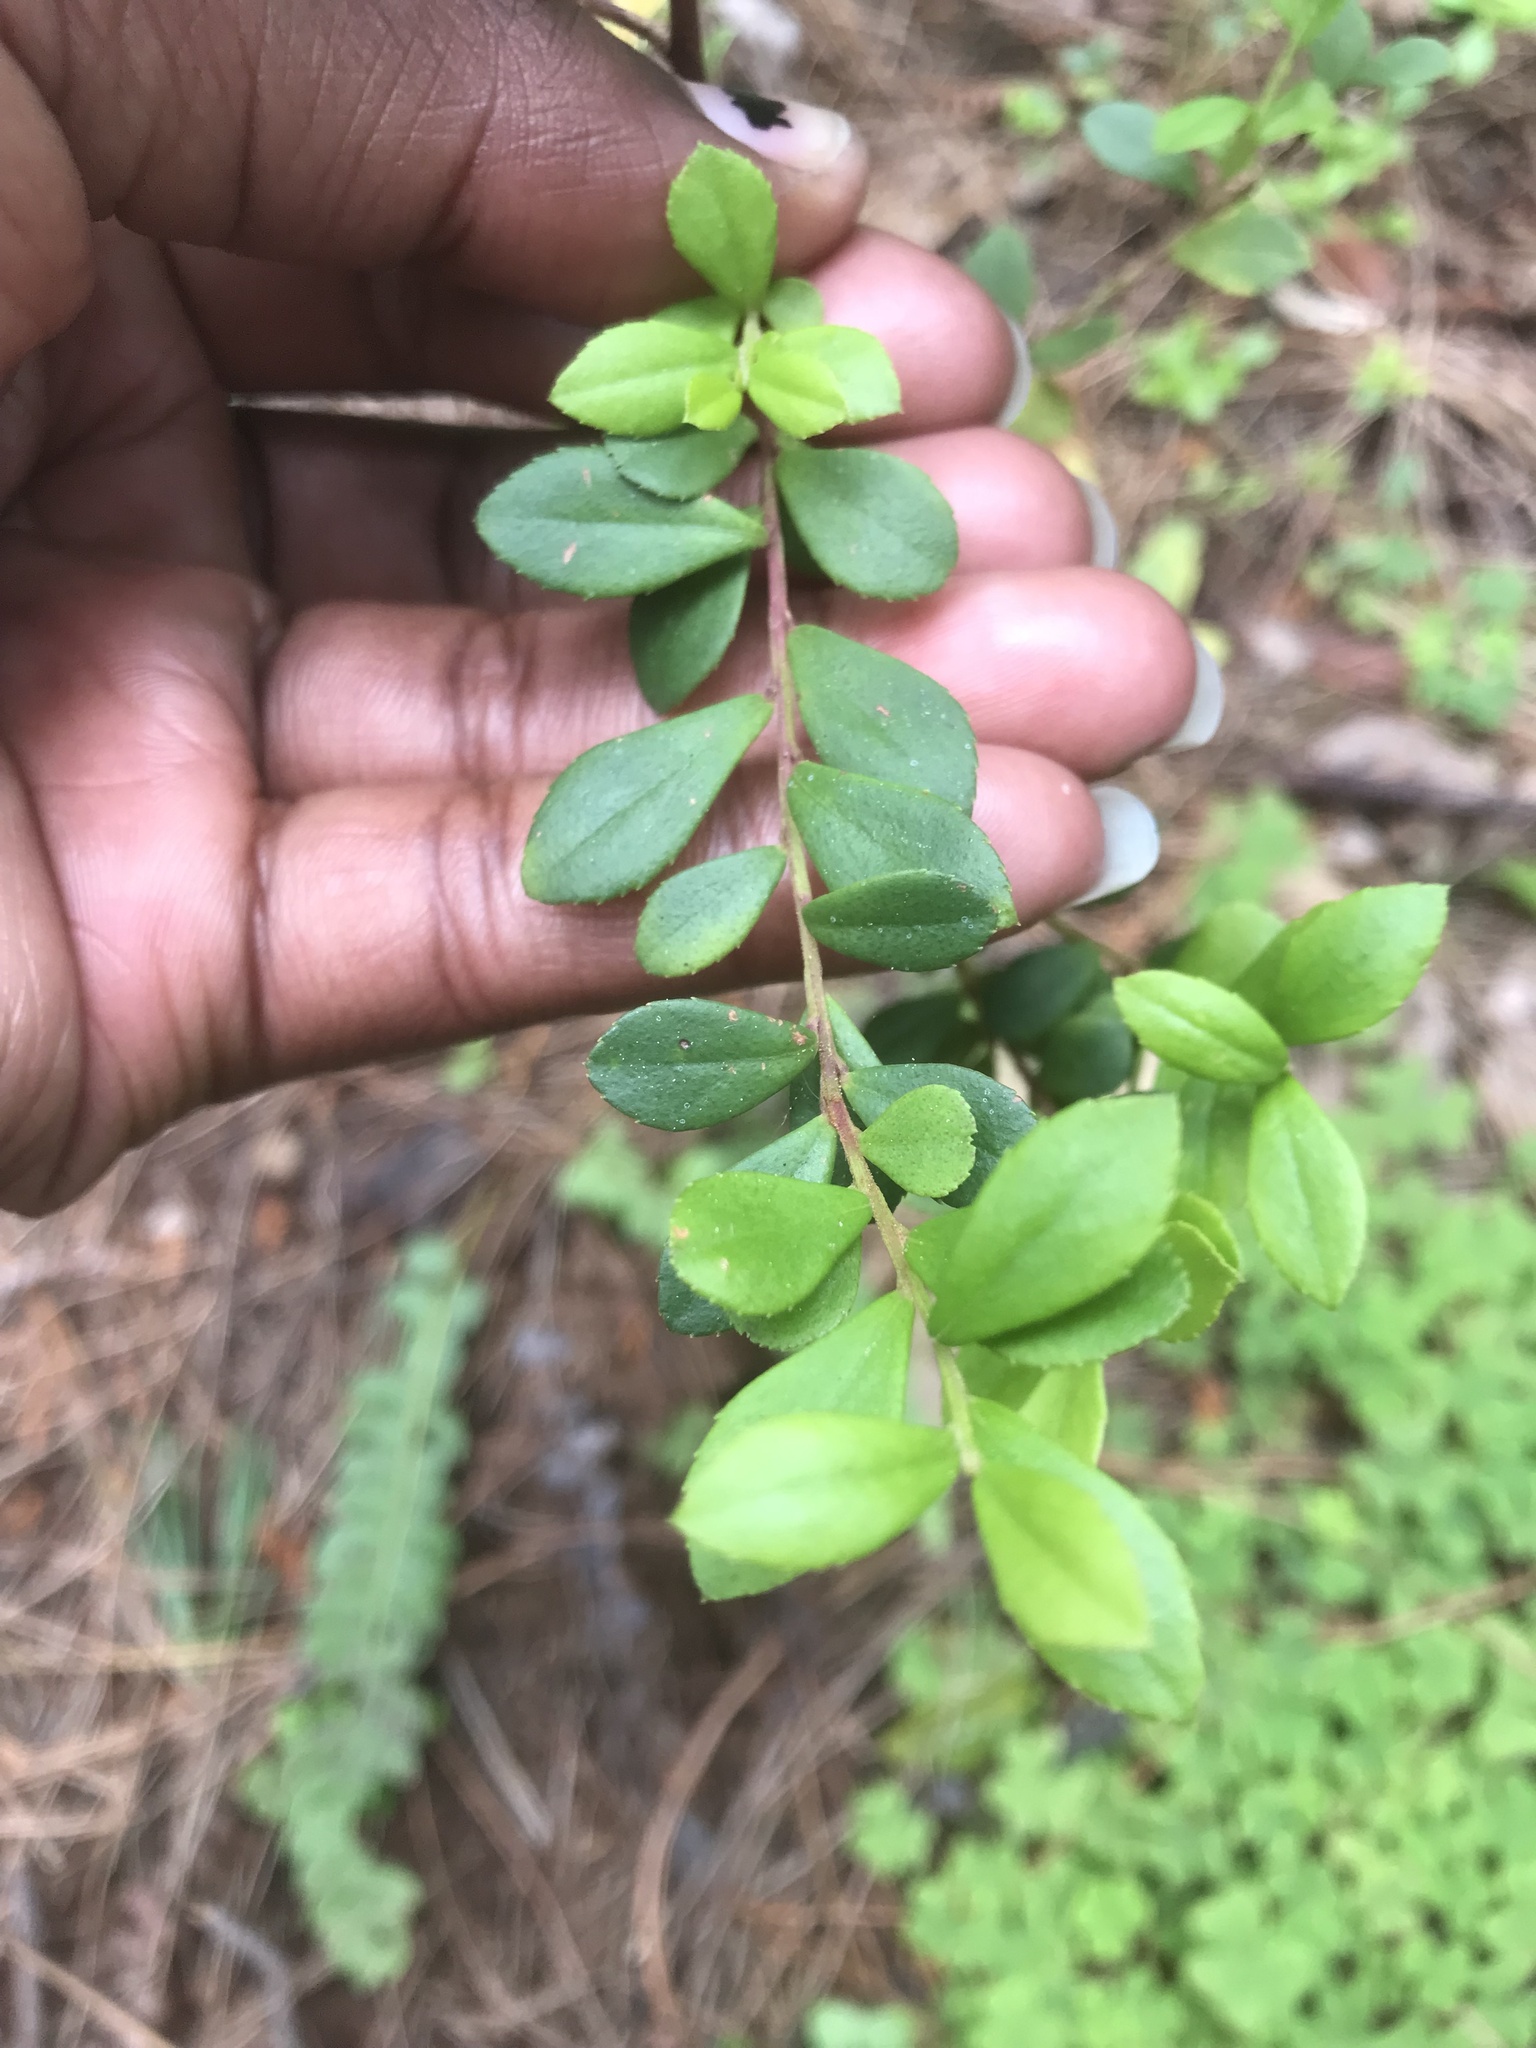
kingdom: Plantae
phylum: Tracheophyta
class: Magnoliopsida
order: Ericales
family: Primulaceae
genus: Myrsine
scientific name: Myrsine africana
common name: African-boxwood
